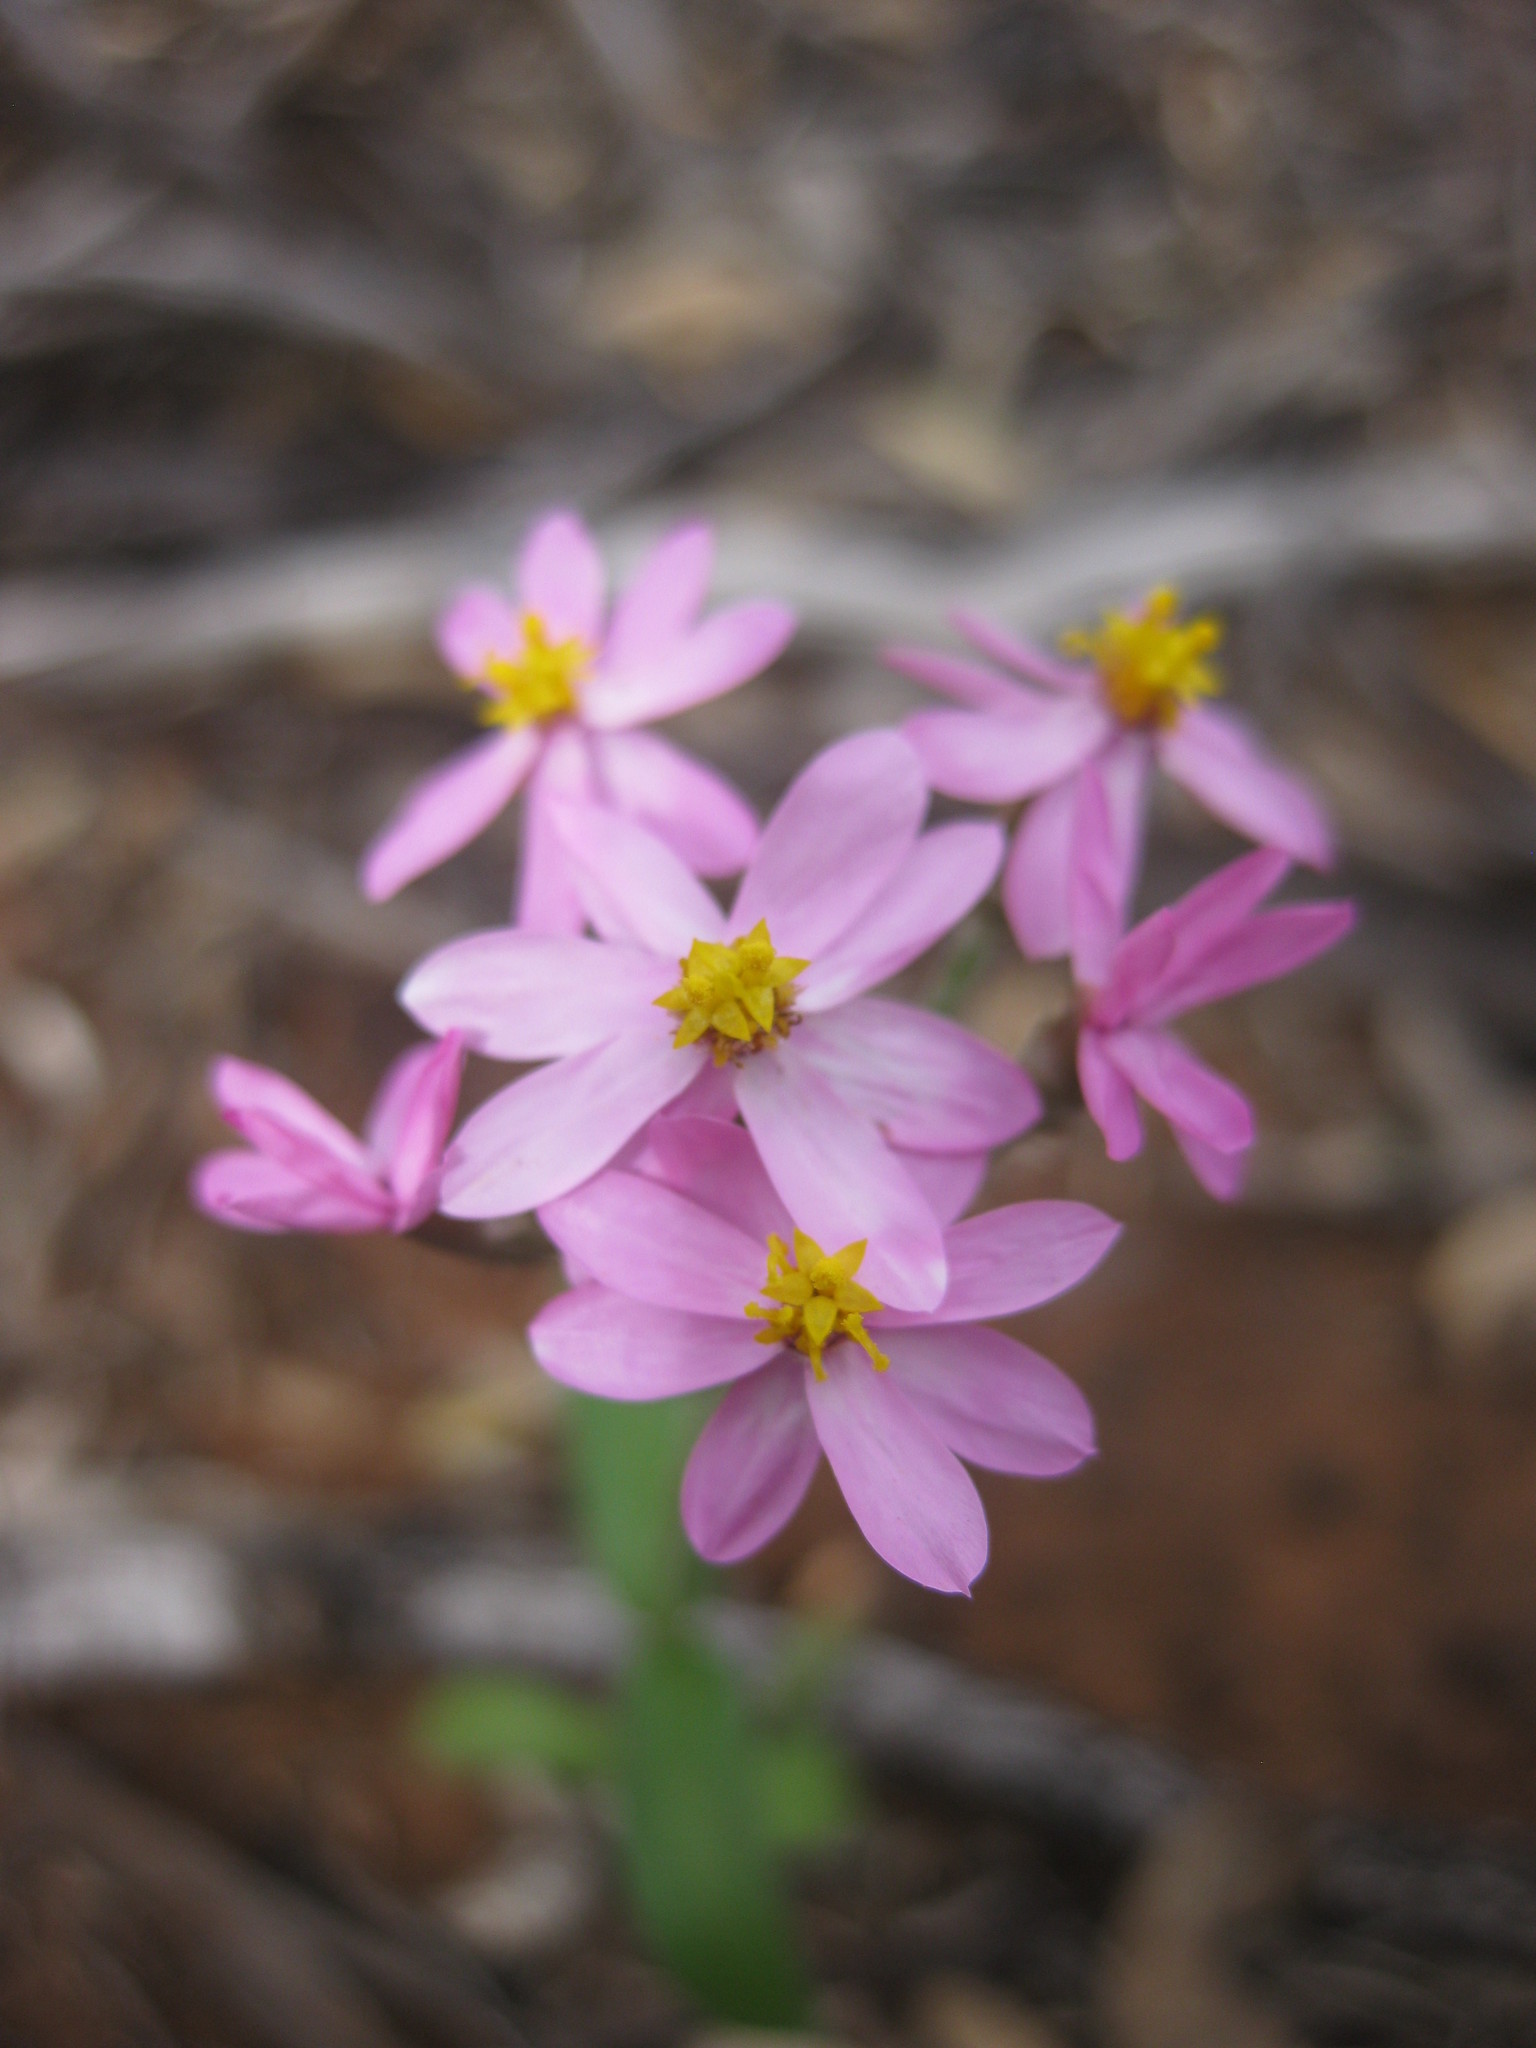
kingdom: Plantae
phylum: Tracheophyta
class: Magnoliopsida
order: Asterales
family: Asteraceae
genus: Schoenia
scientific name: Schoenia cassiniana
